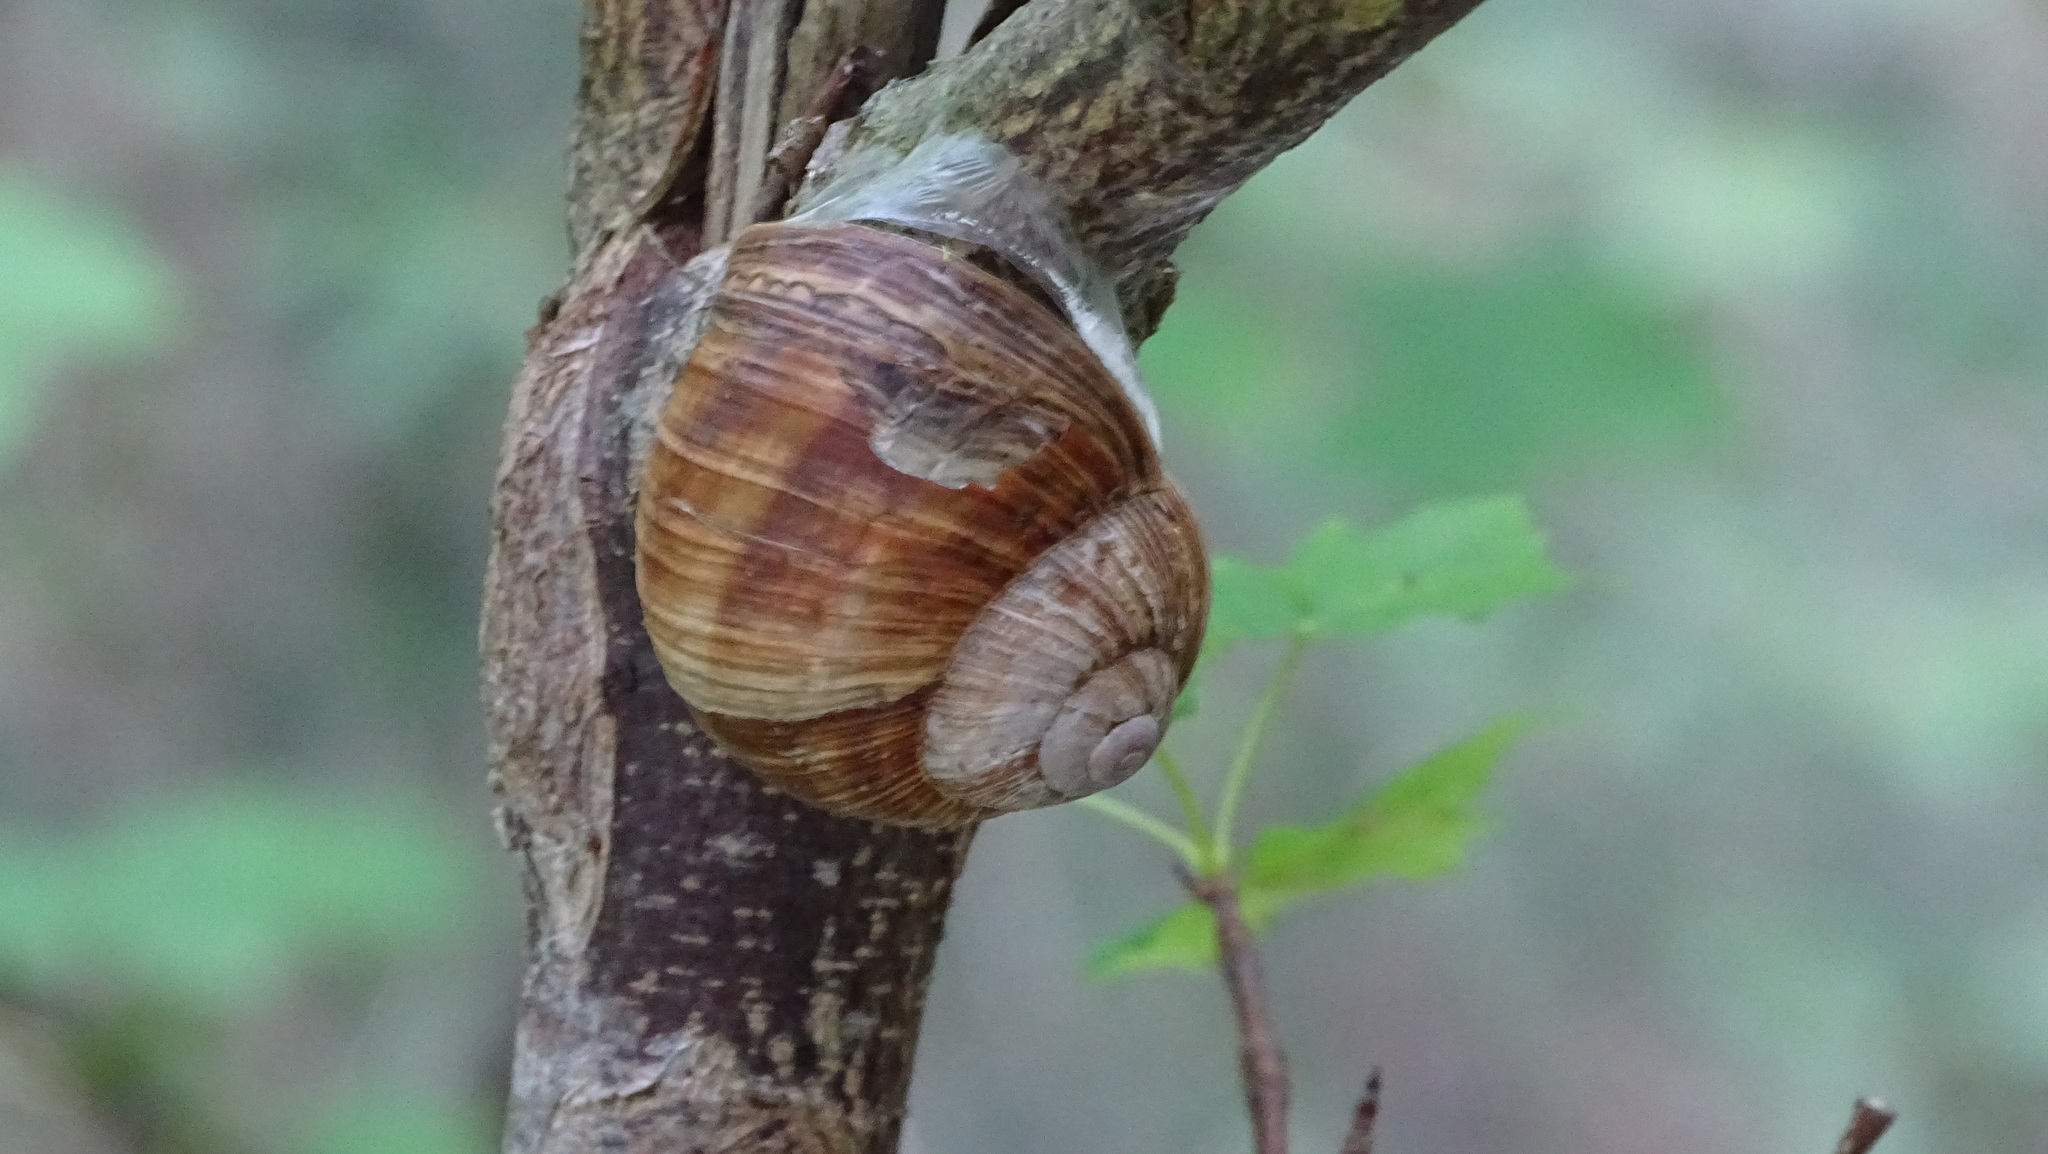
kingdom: Animalia
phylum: Mollusca
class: Gastropoda
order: Stylommatophora
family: Helicidae
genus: Helix
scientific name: Helix pomatia
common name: Roman snail
